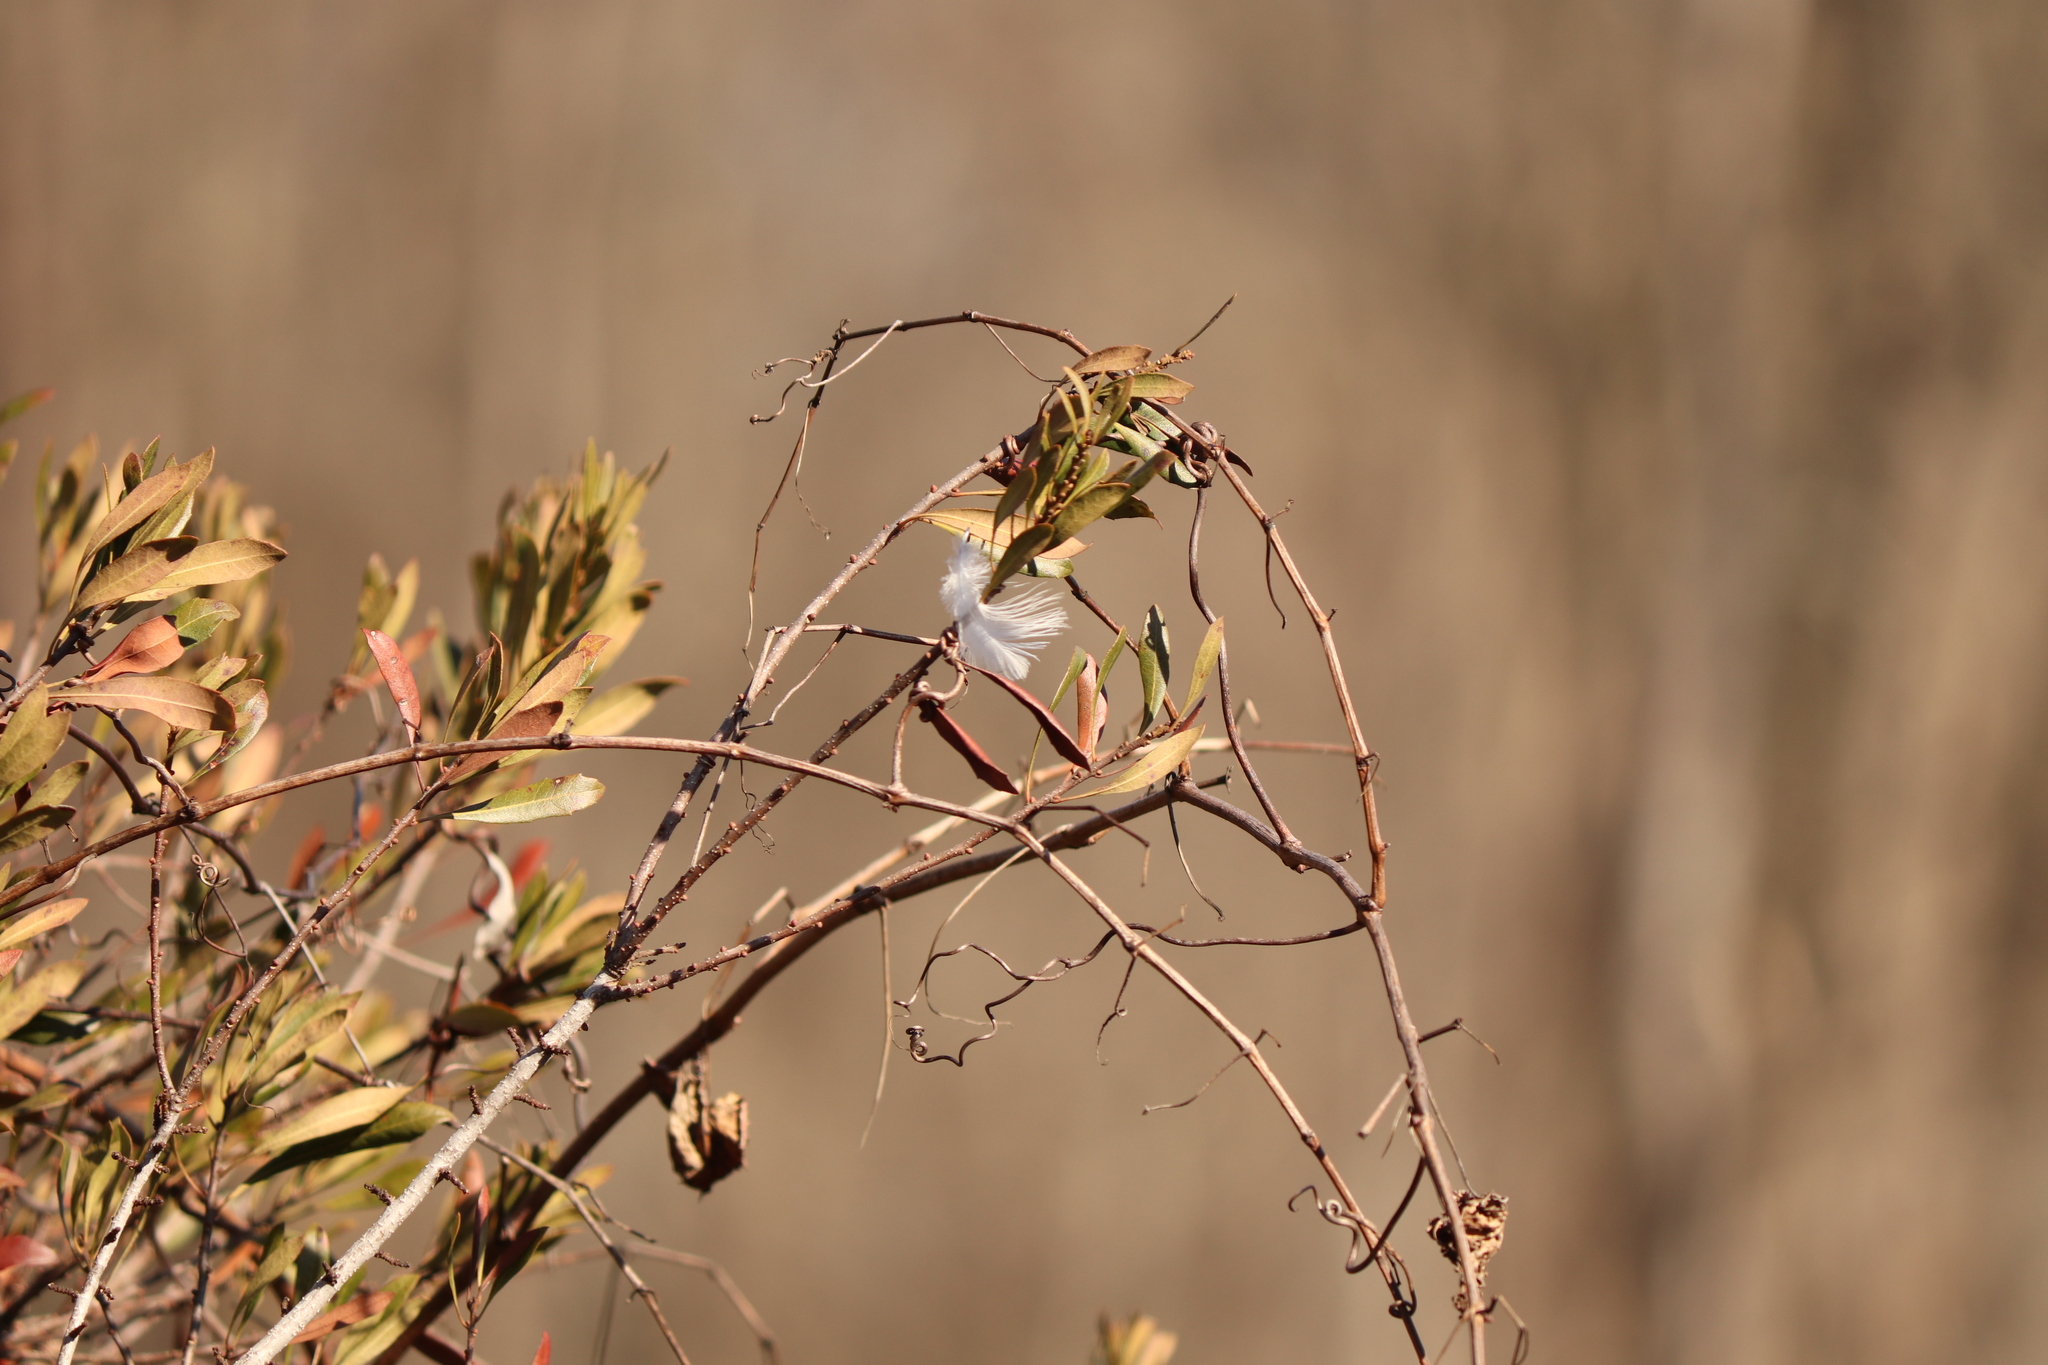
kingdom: Animalia
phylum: Chordata
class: Aves
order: Charadriiformes
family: Laridae
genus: Larus
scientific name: Larus delawarensis
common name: Ring-billed gull
